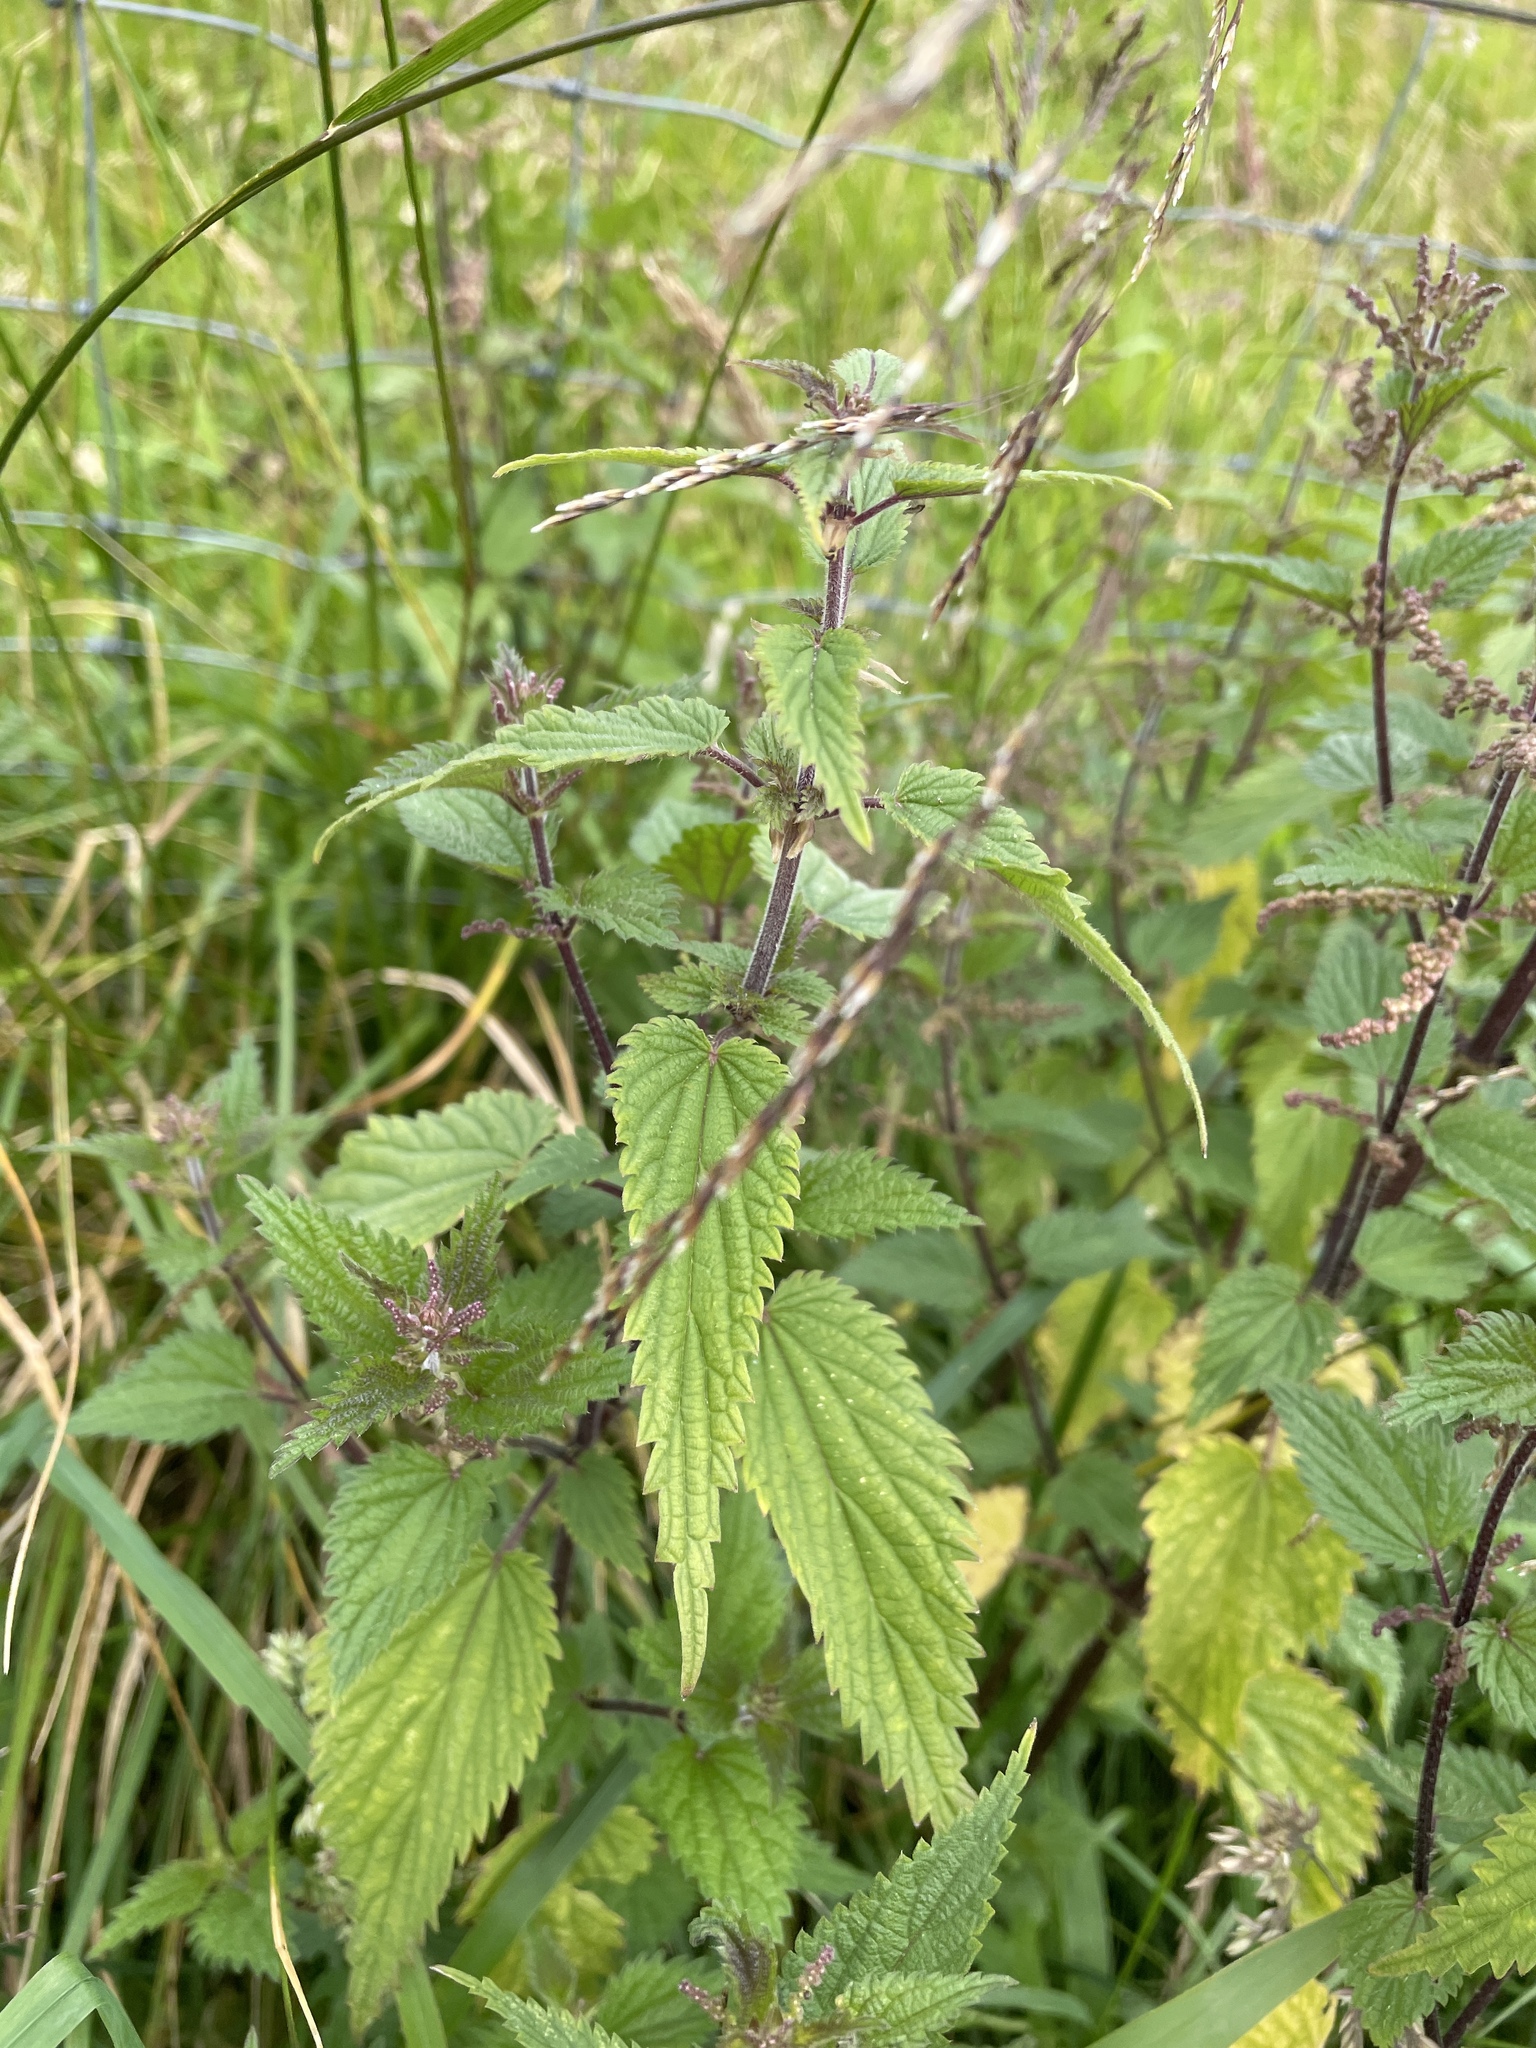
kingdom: Plantae
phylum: Tracheophyta
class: Magnoliopsida
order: Rosales
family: Urticaceae
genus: Urtica
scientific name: Urtica dioica
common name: Common nettle
